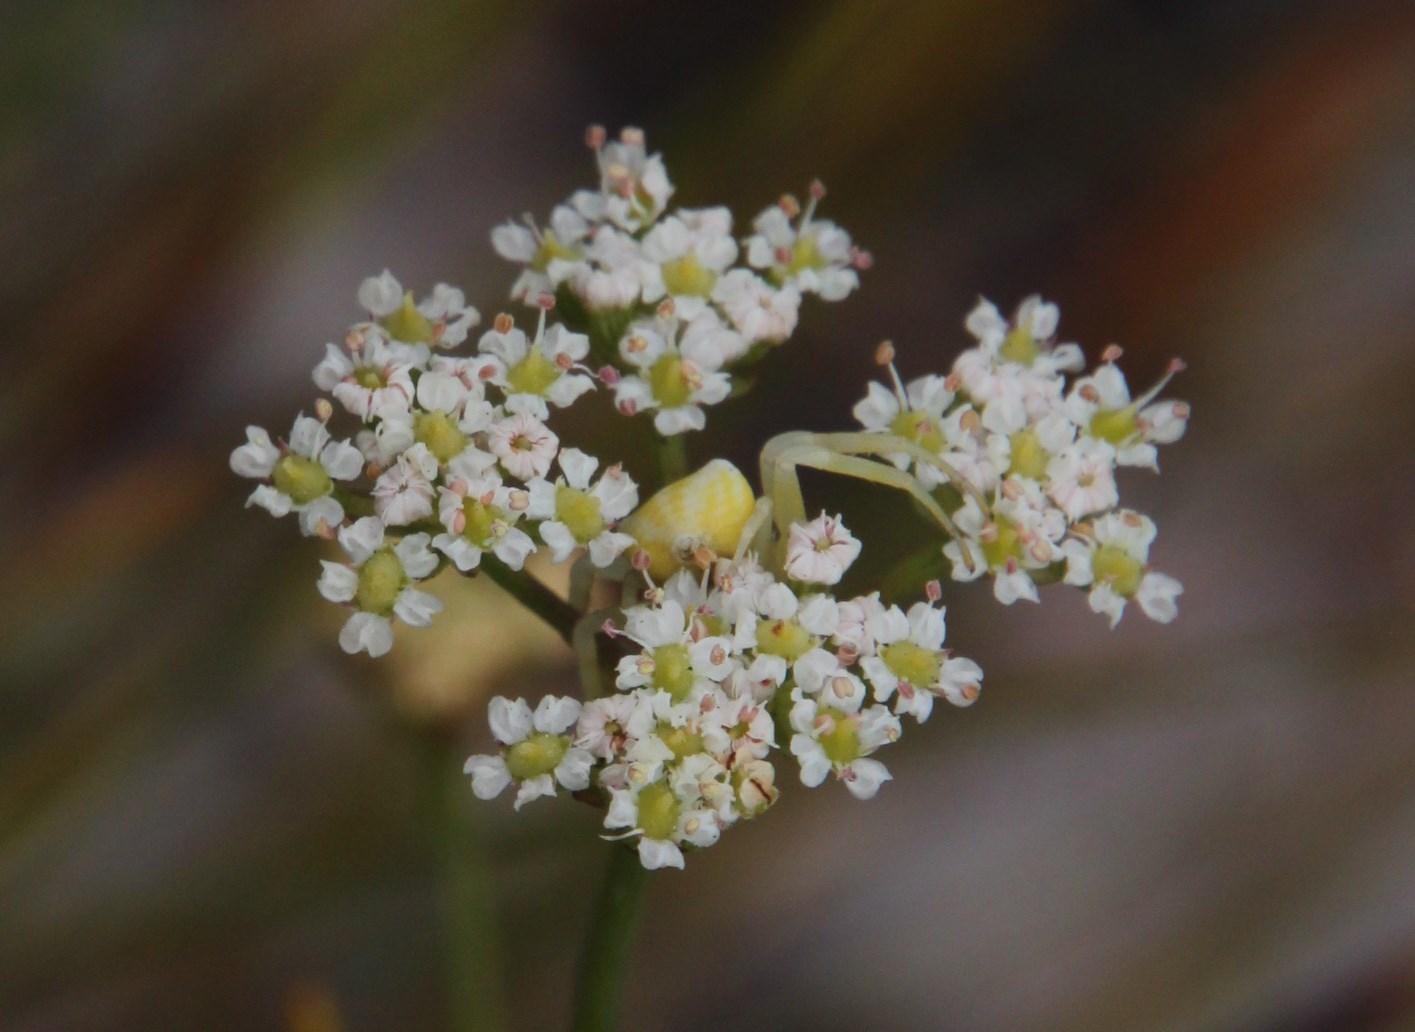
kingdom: Plantae
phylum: Tracheophyta
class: Magnoliopsida
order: Apiales
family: Apiaceae
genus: Itasina
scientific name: Itasina filifolia
